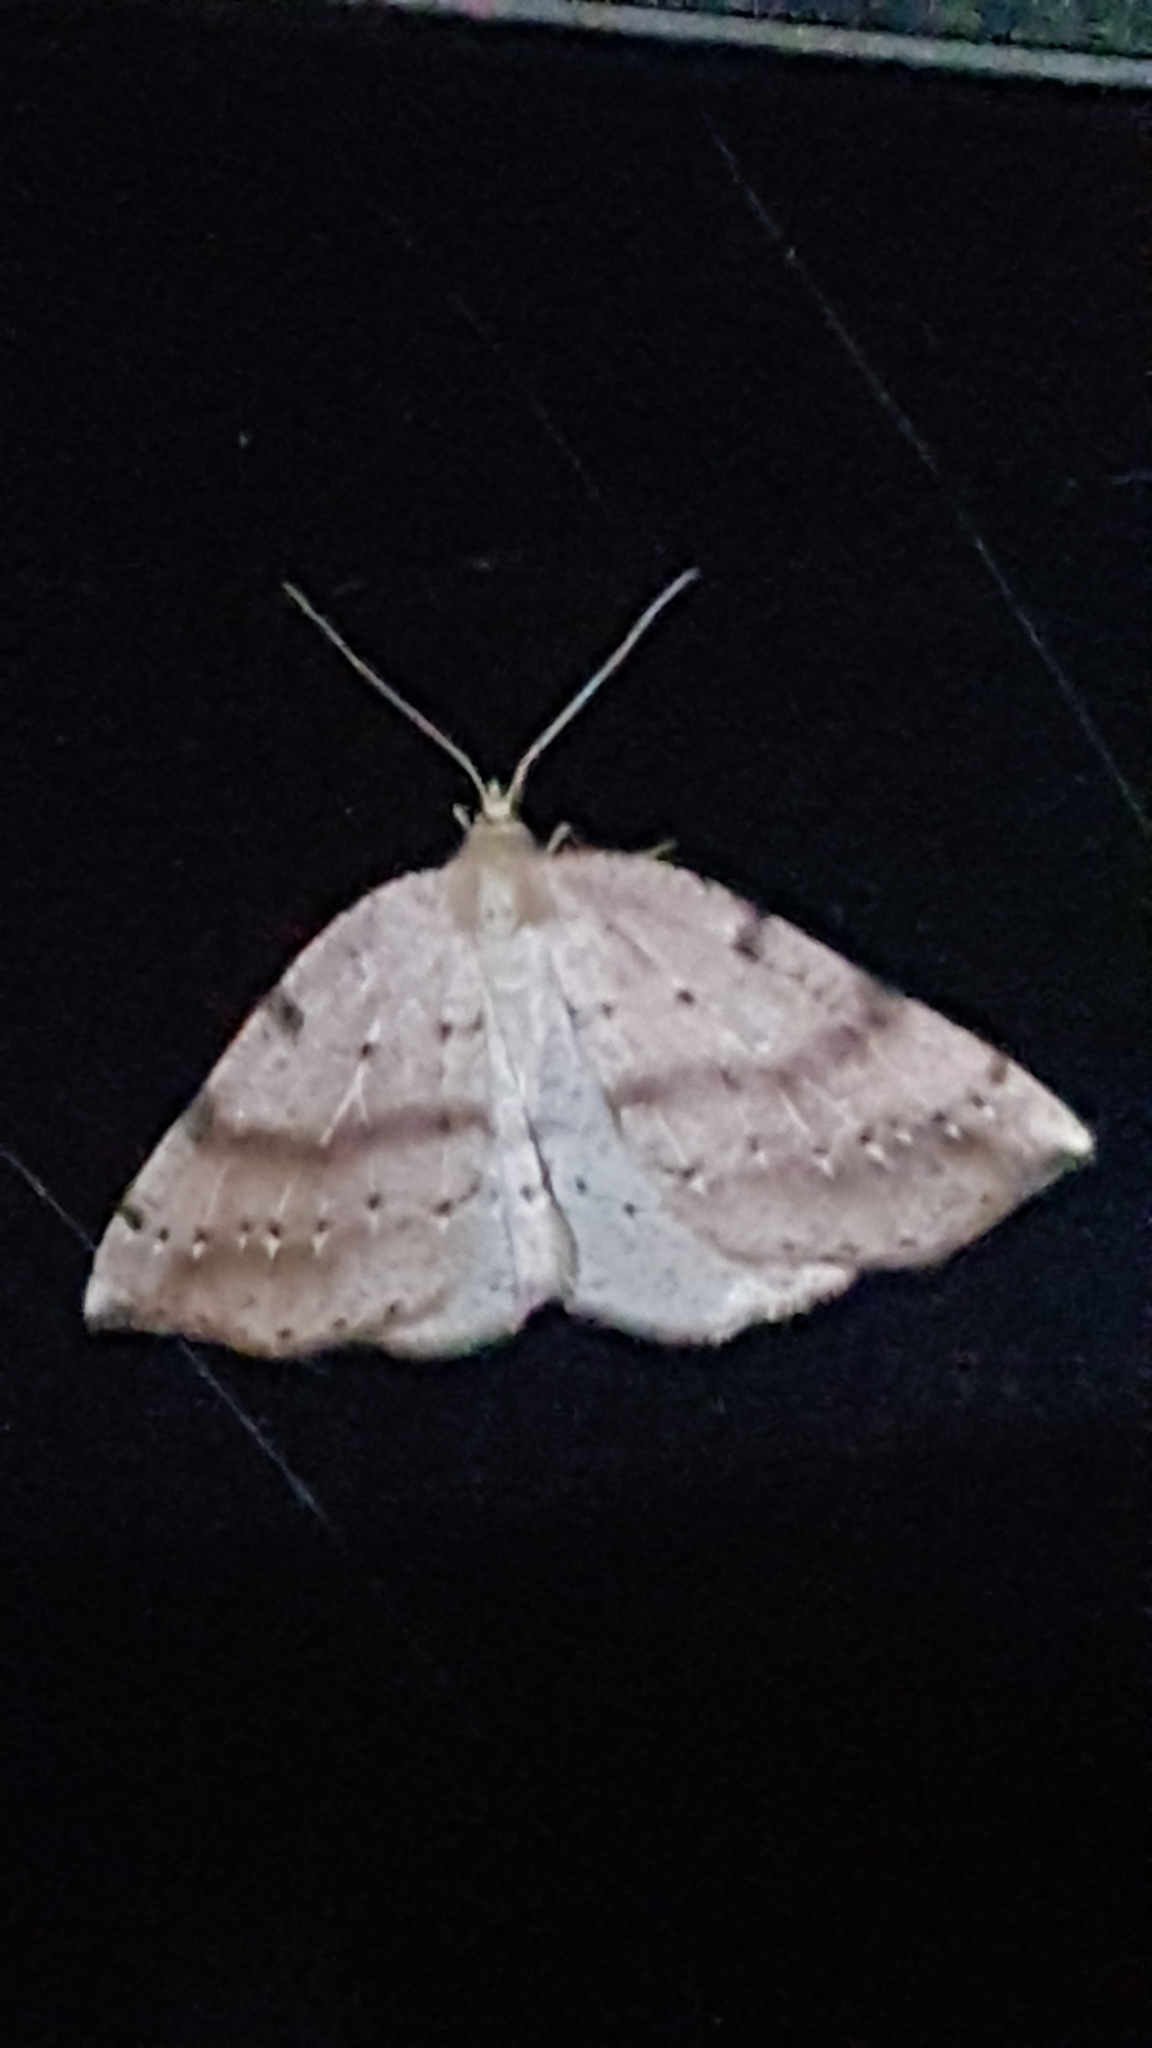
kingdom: Animalia
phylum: Arthropoda
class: Insecta
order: Lepidoptera
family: Geometridae
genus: Thallophaga
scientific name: Thallophaga hyperborea
